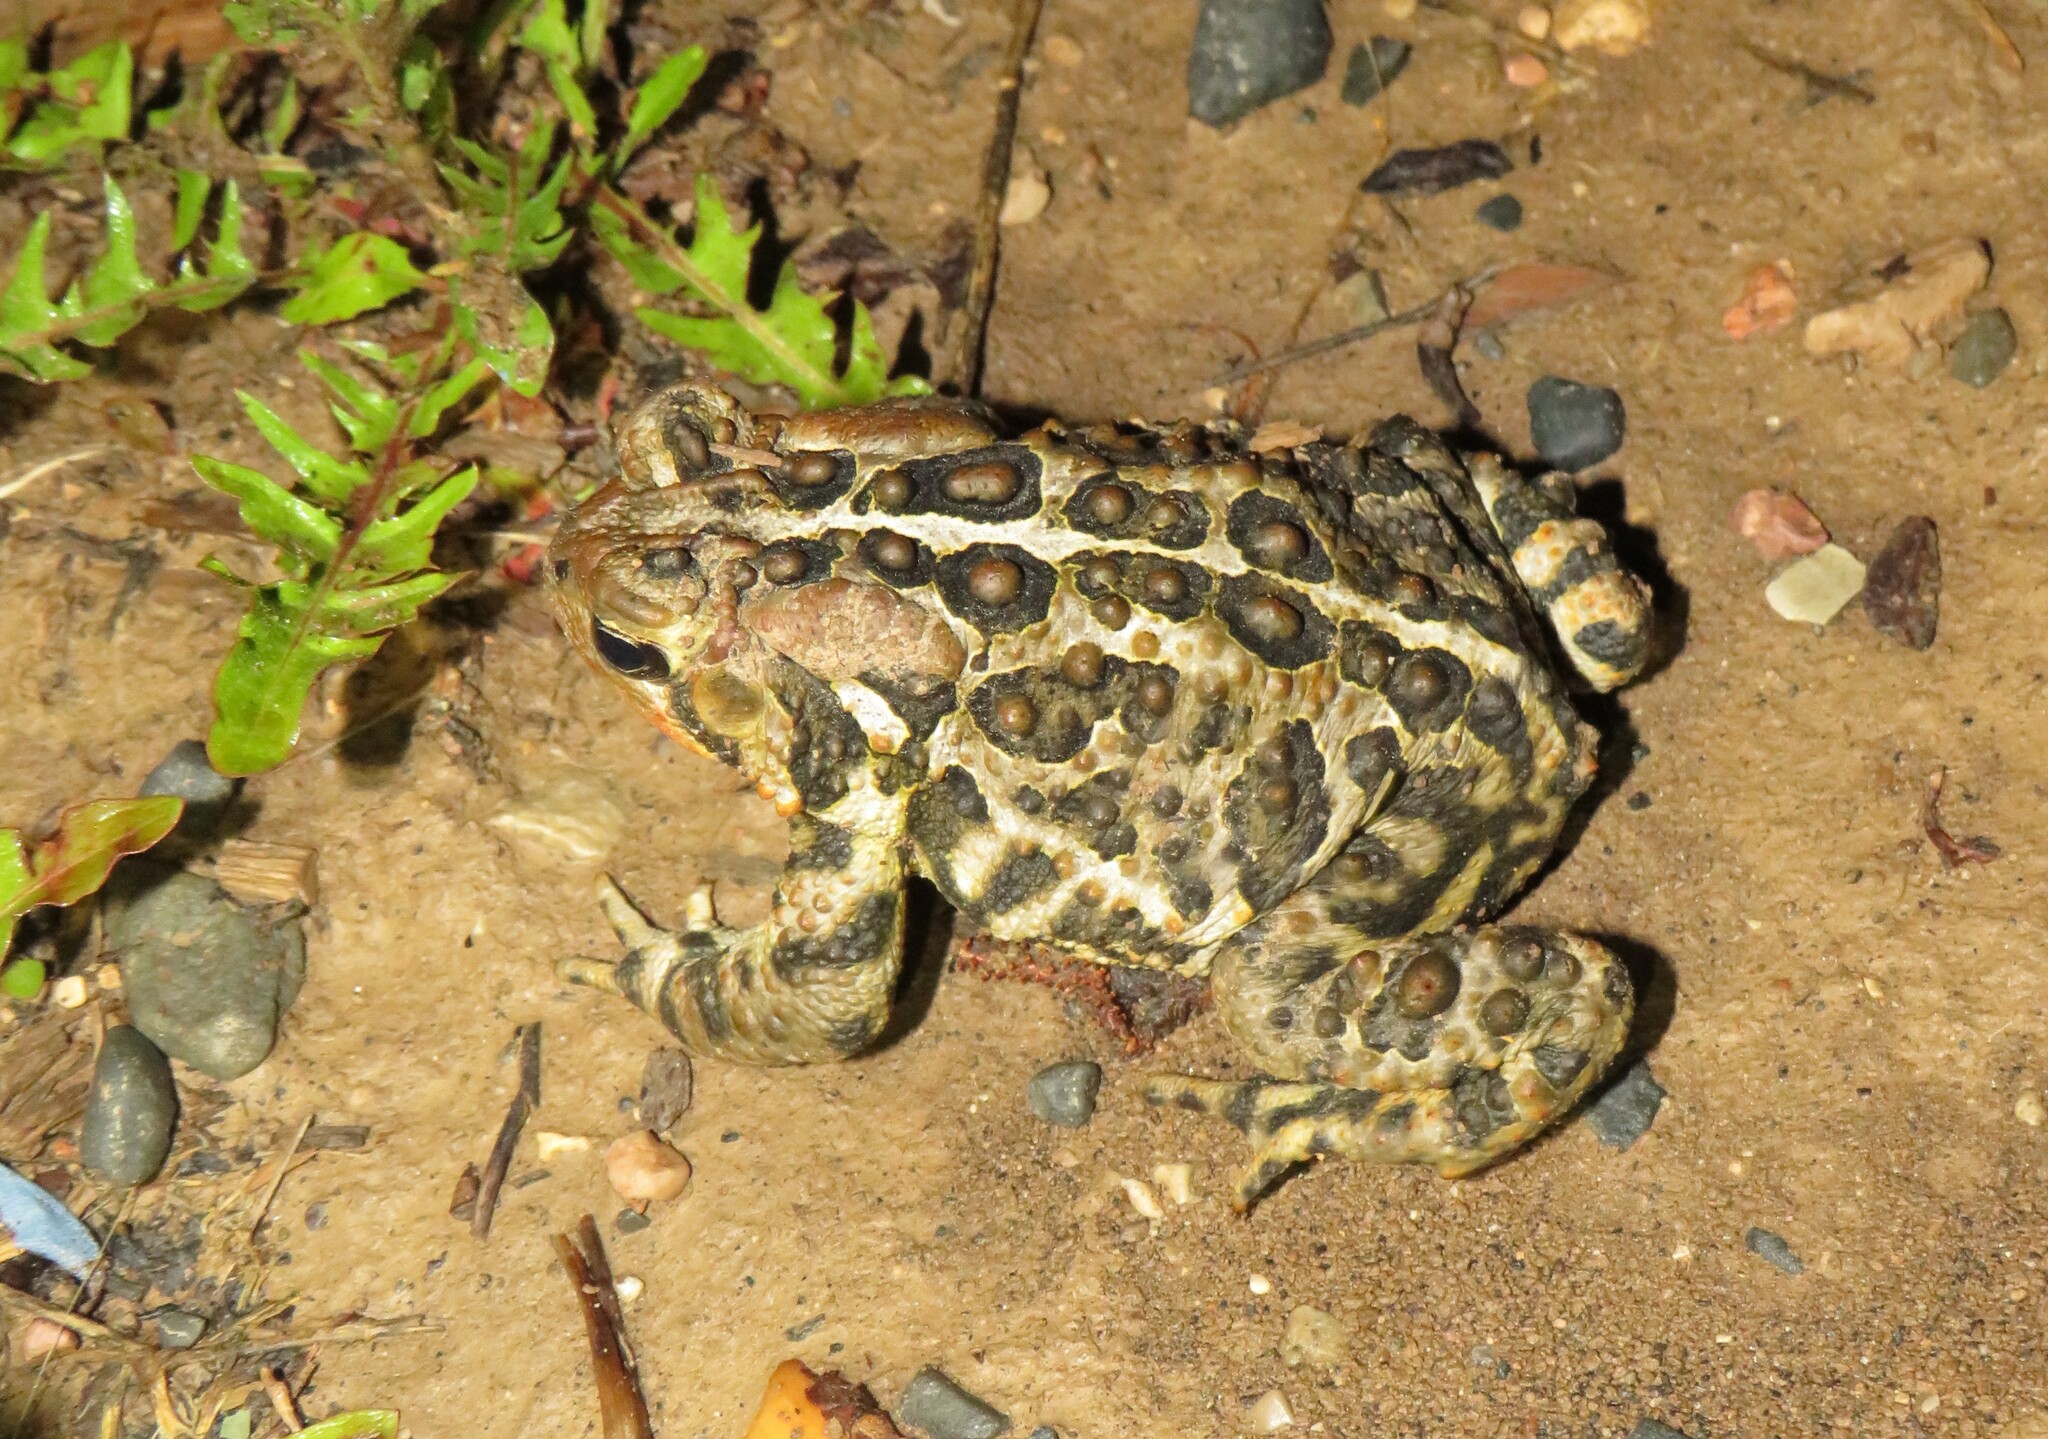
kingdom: Animalia
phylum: Chordata
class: Amphibia
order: Anura
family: Bufonidae
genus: Anaxyrus
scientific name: Anaxyrus americanus
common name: American toad
